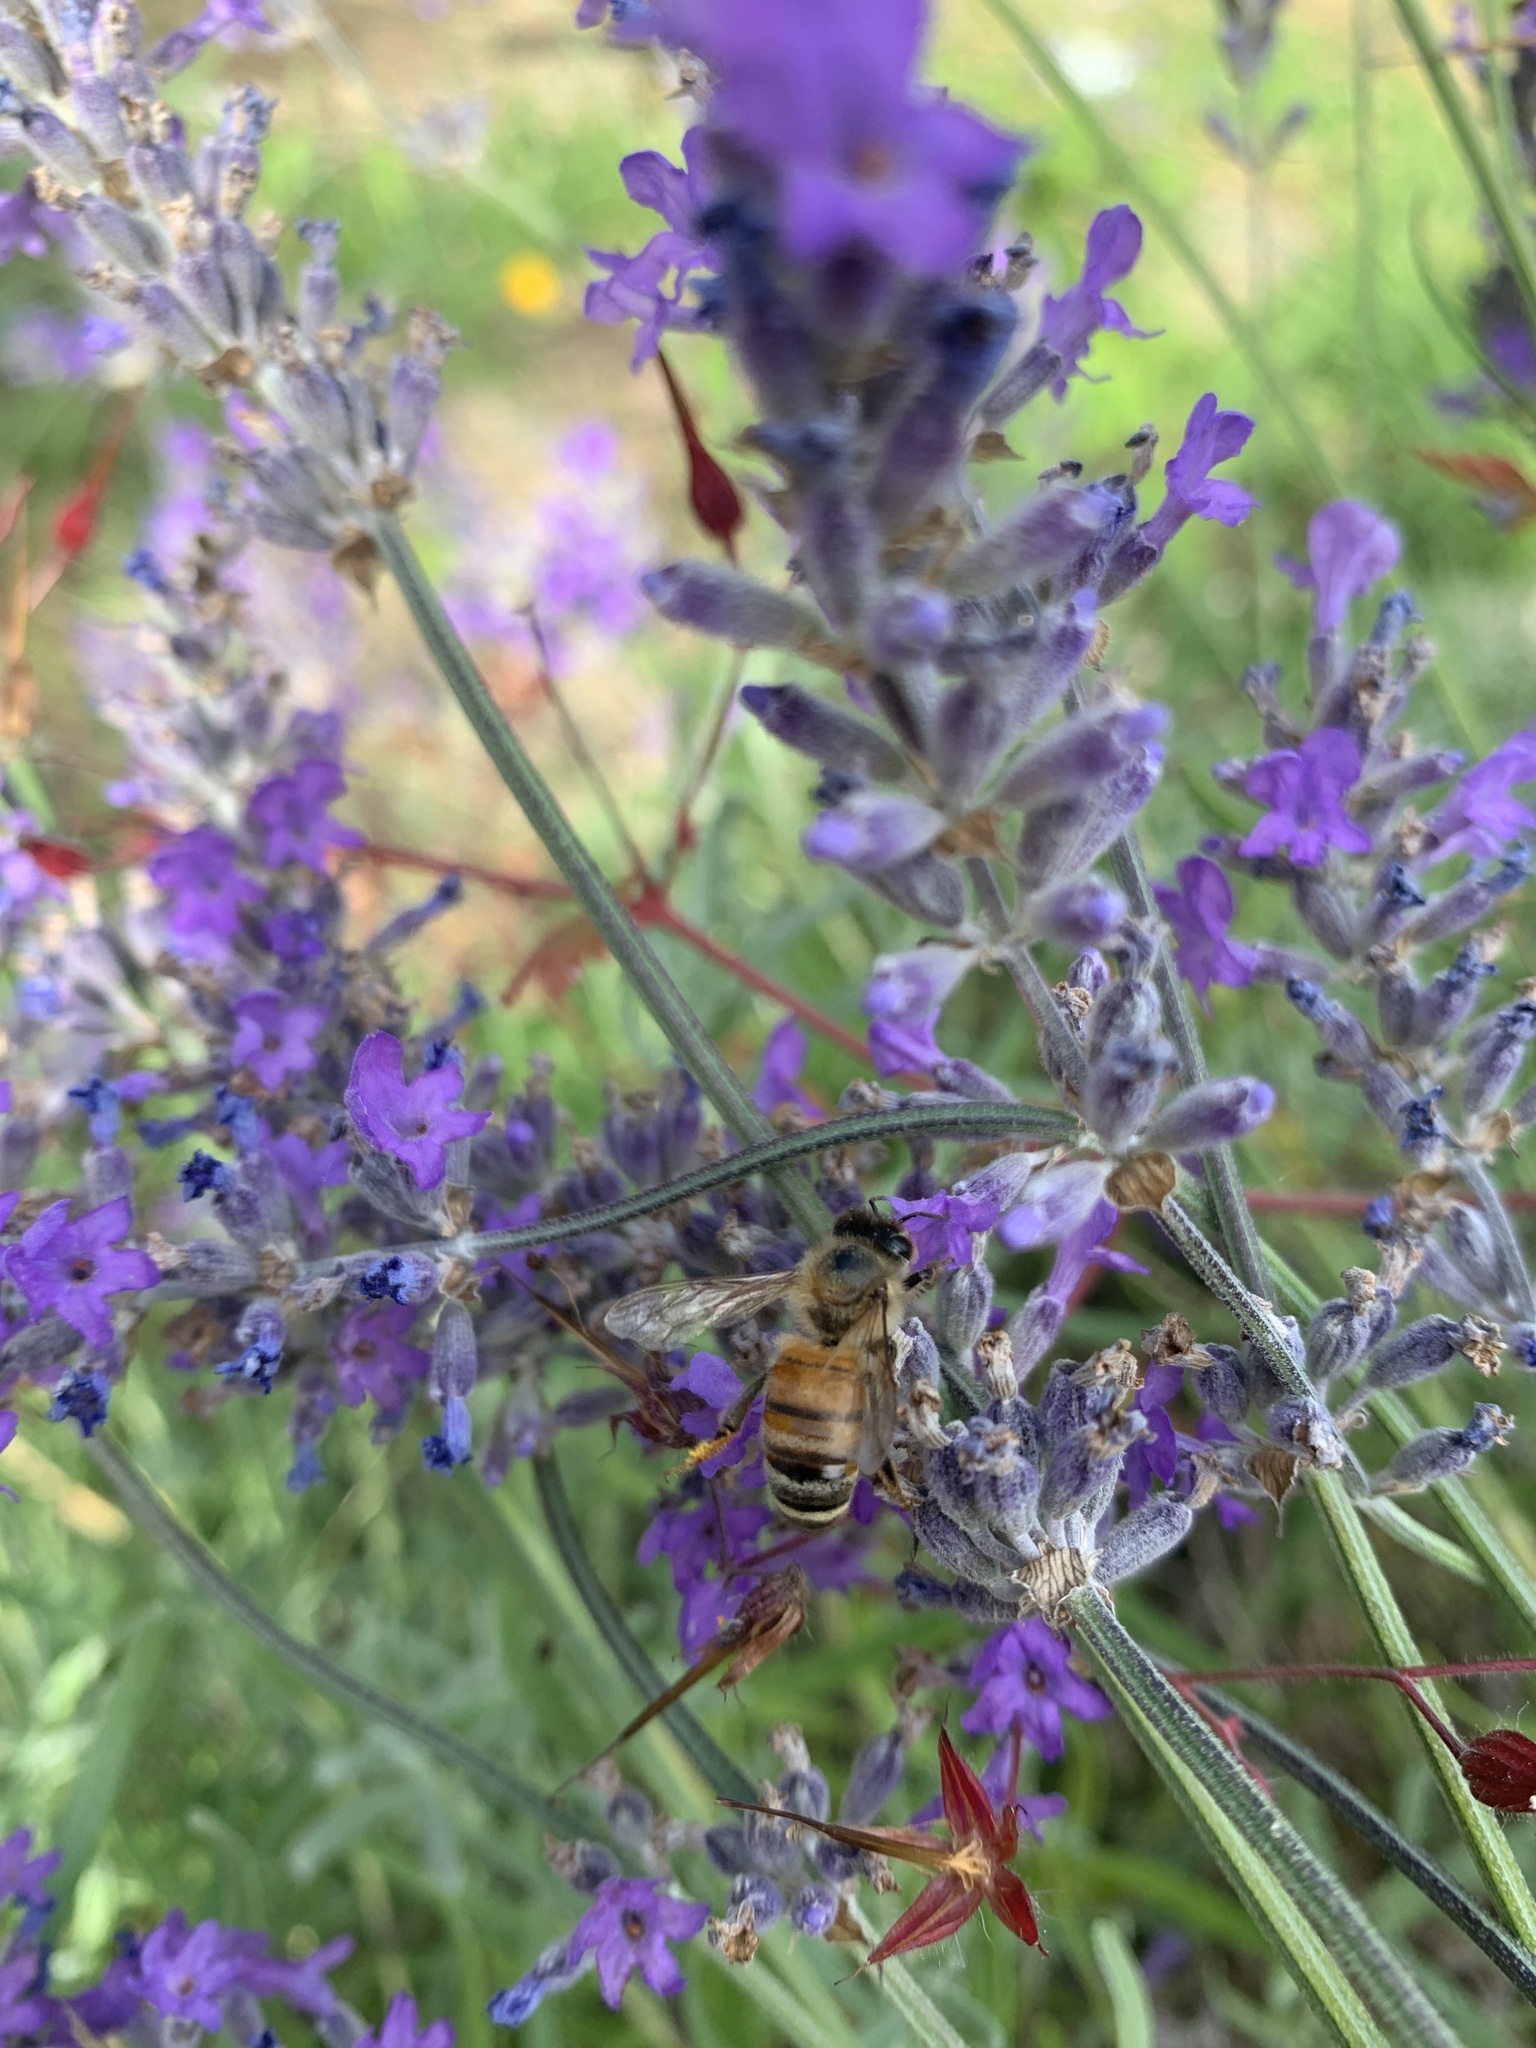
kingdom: Animalia
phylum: Arthropoda
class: Insecta
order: Hymenoptera
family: Apidae
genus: Apis
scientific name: Apis mellifera
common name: Honey bee
